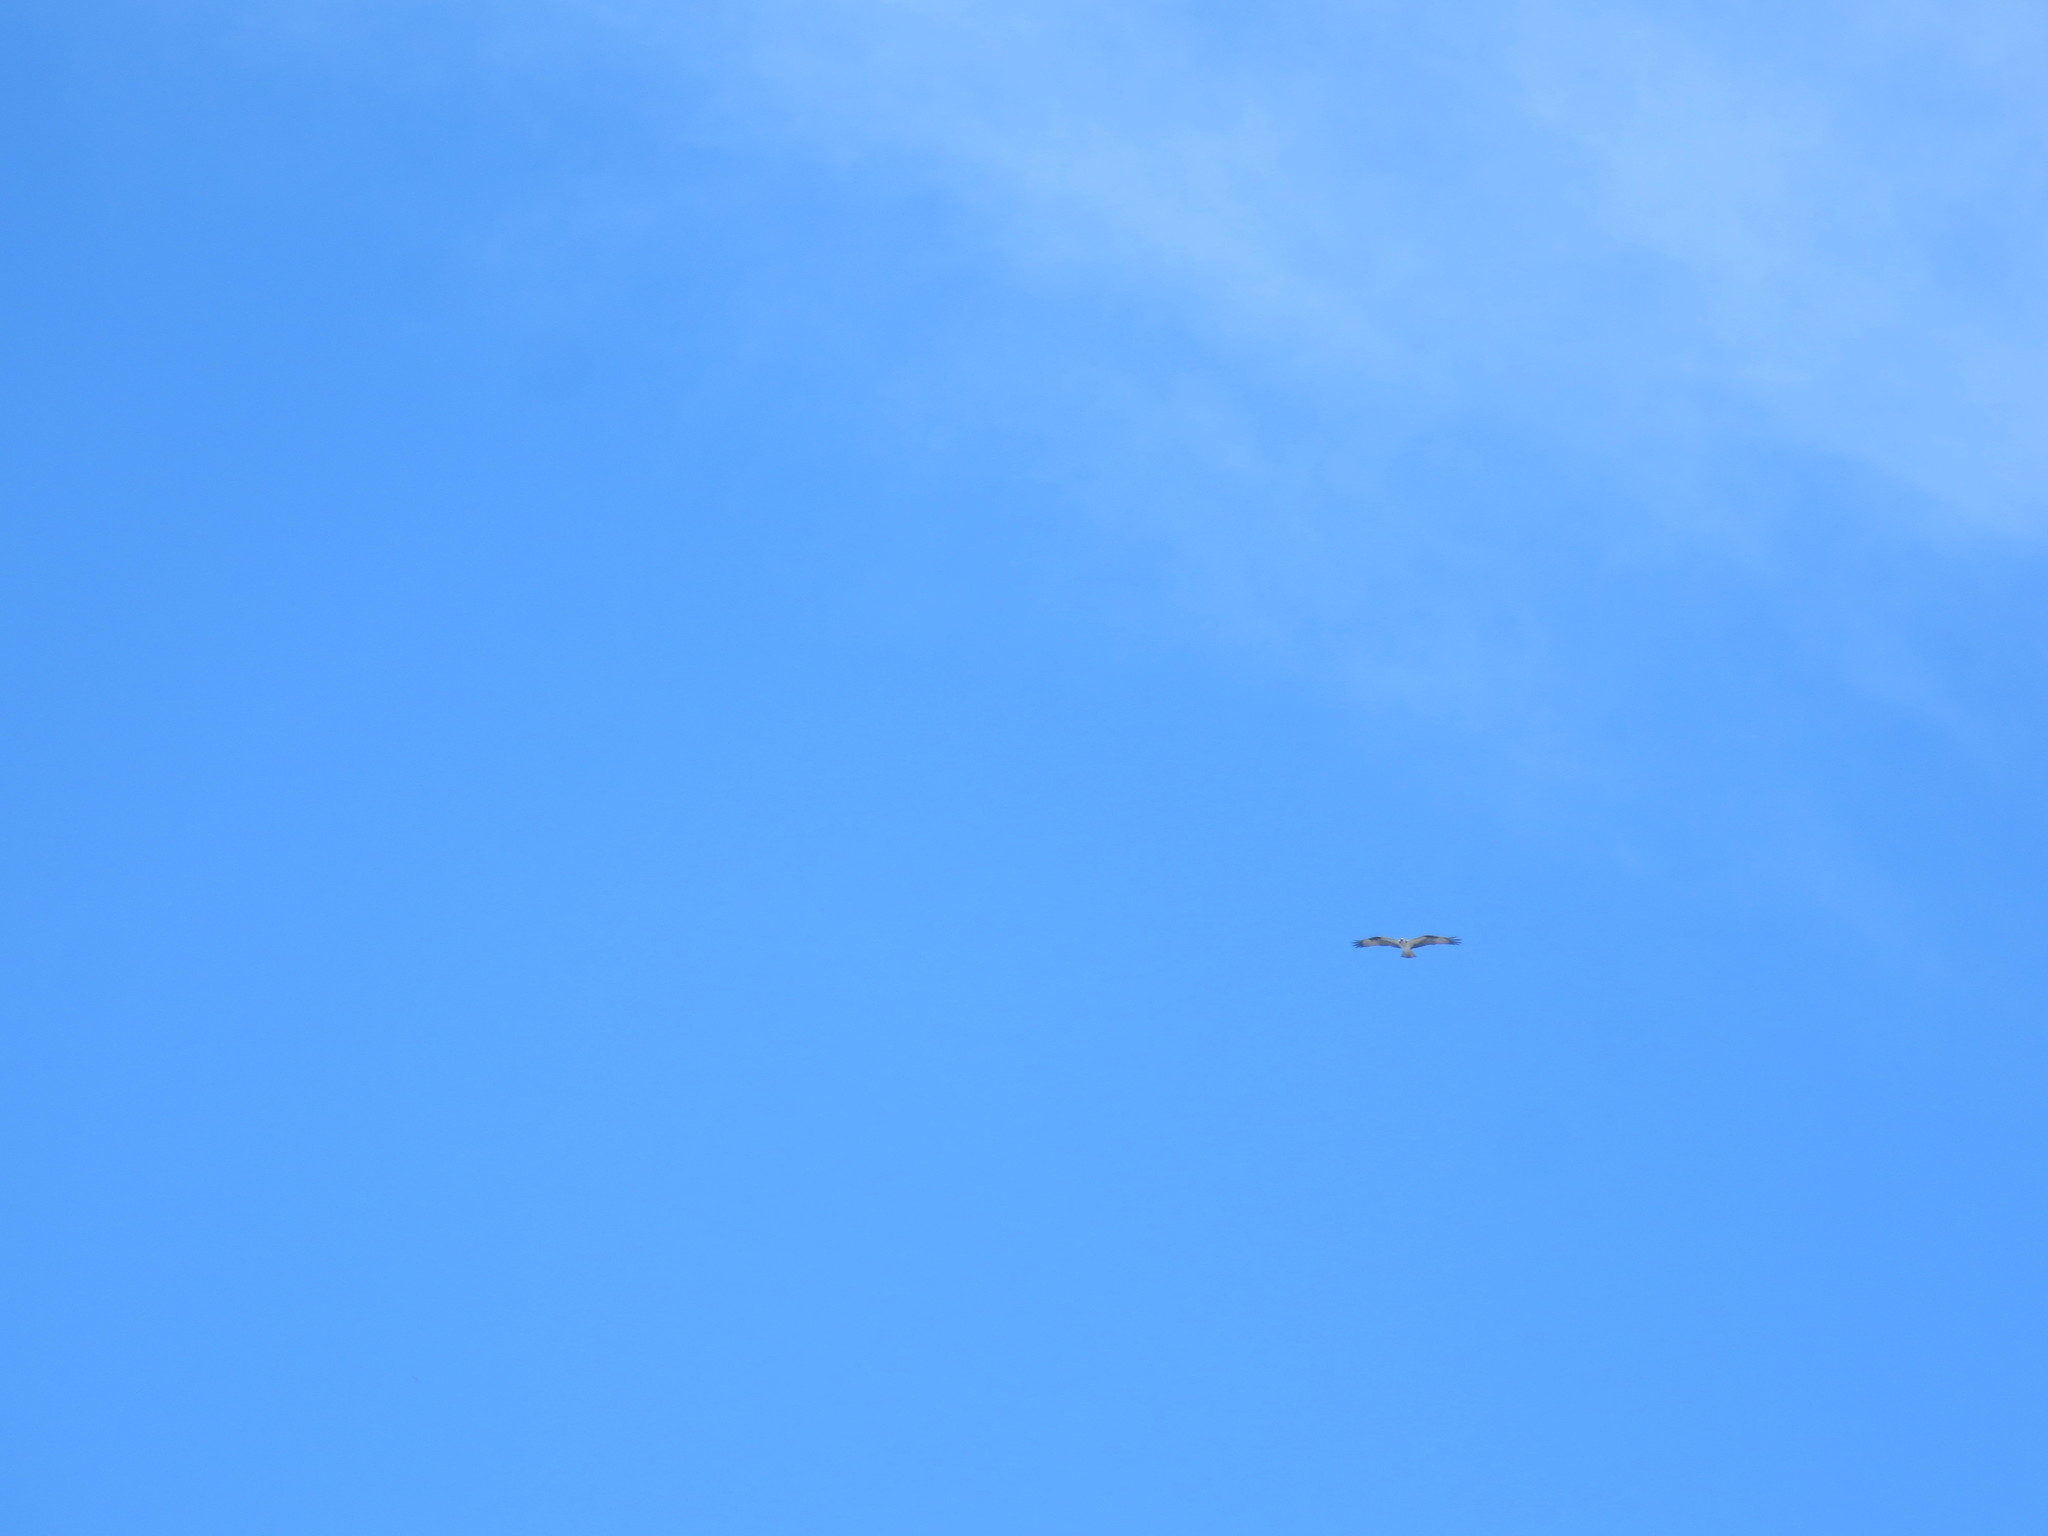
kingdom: Animalia
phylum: Chordata
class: Aves
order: Accipitriformes
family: Pandionidae
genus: Pandion
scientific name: Pandion haliaetus
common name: Osprey
